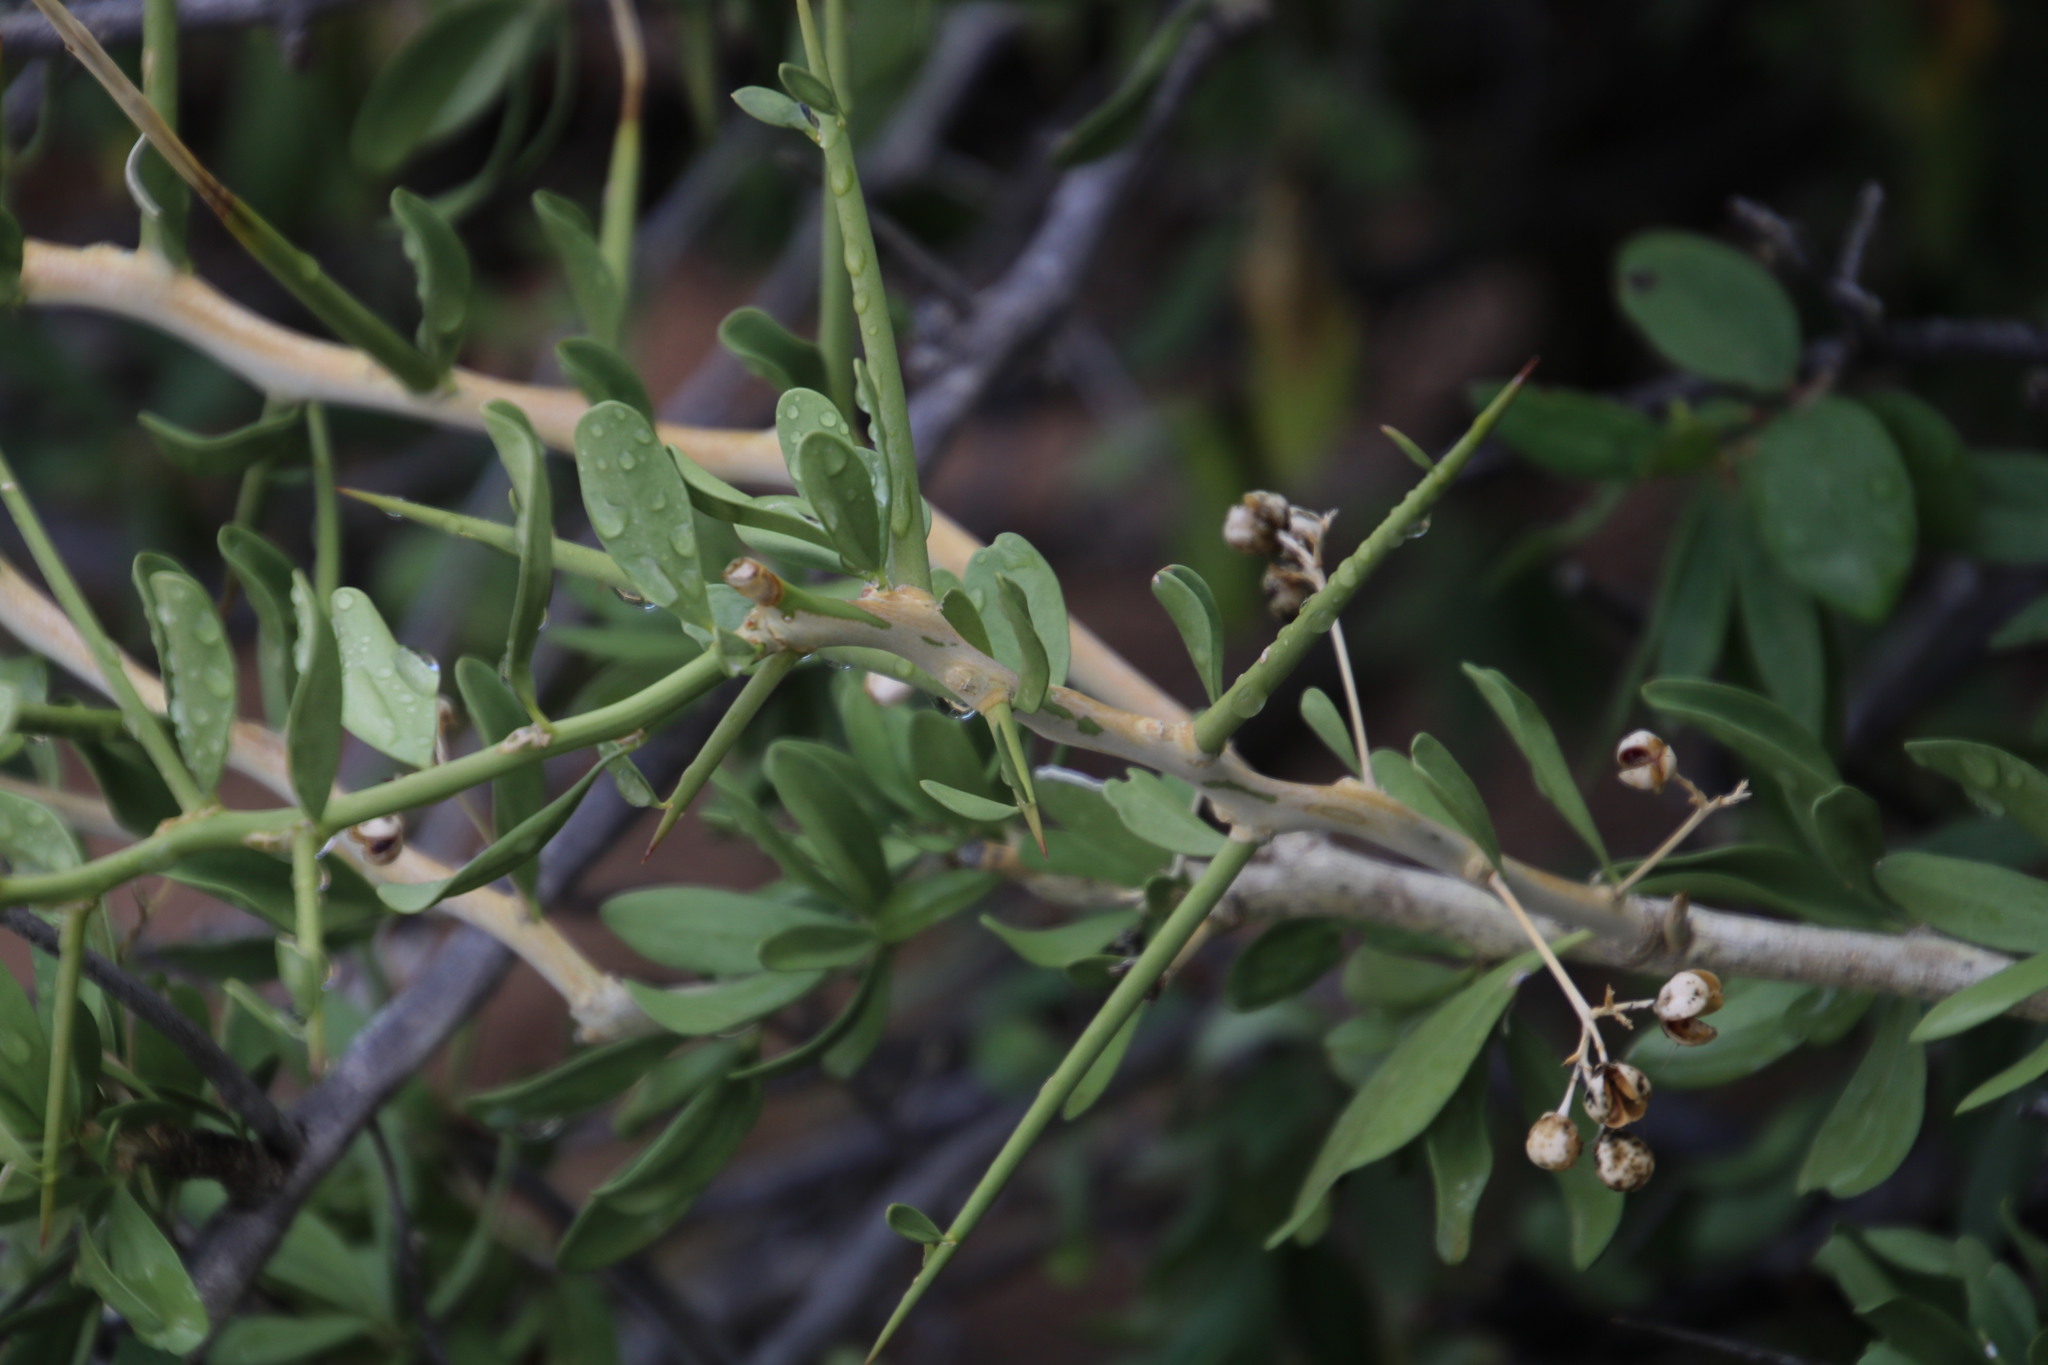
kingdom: Plantae
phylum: Tracheophyta
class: Magnoliopsida
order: Celastrales
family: Celastraceae
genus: Gymnosporia
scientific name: Gymnosporia buxifolia
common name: Common spike-thorn
